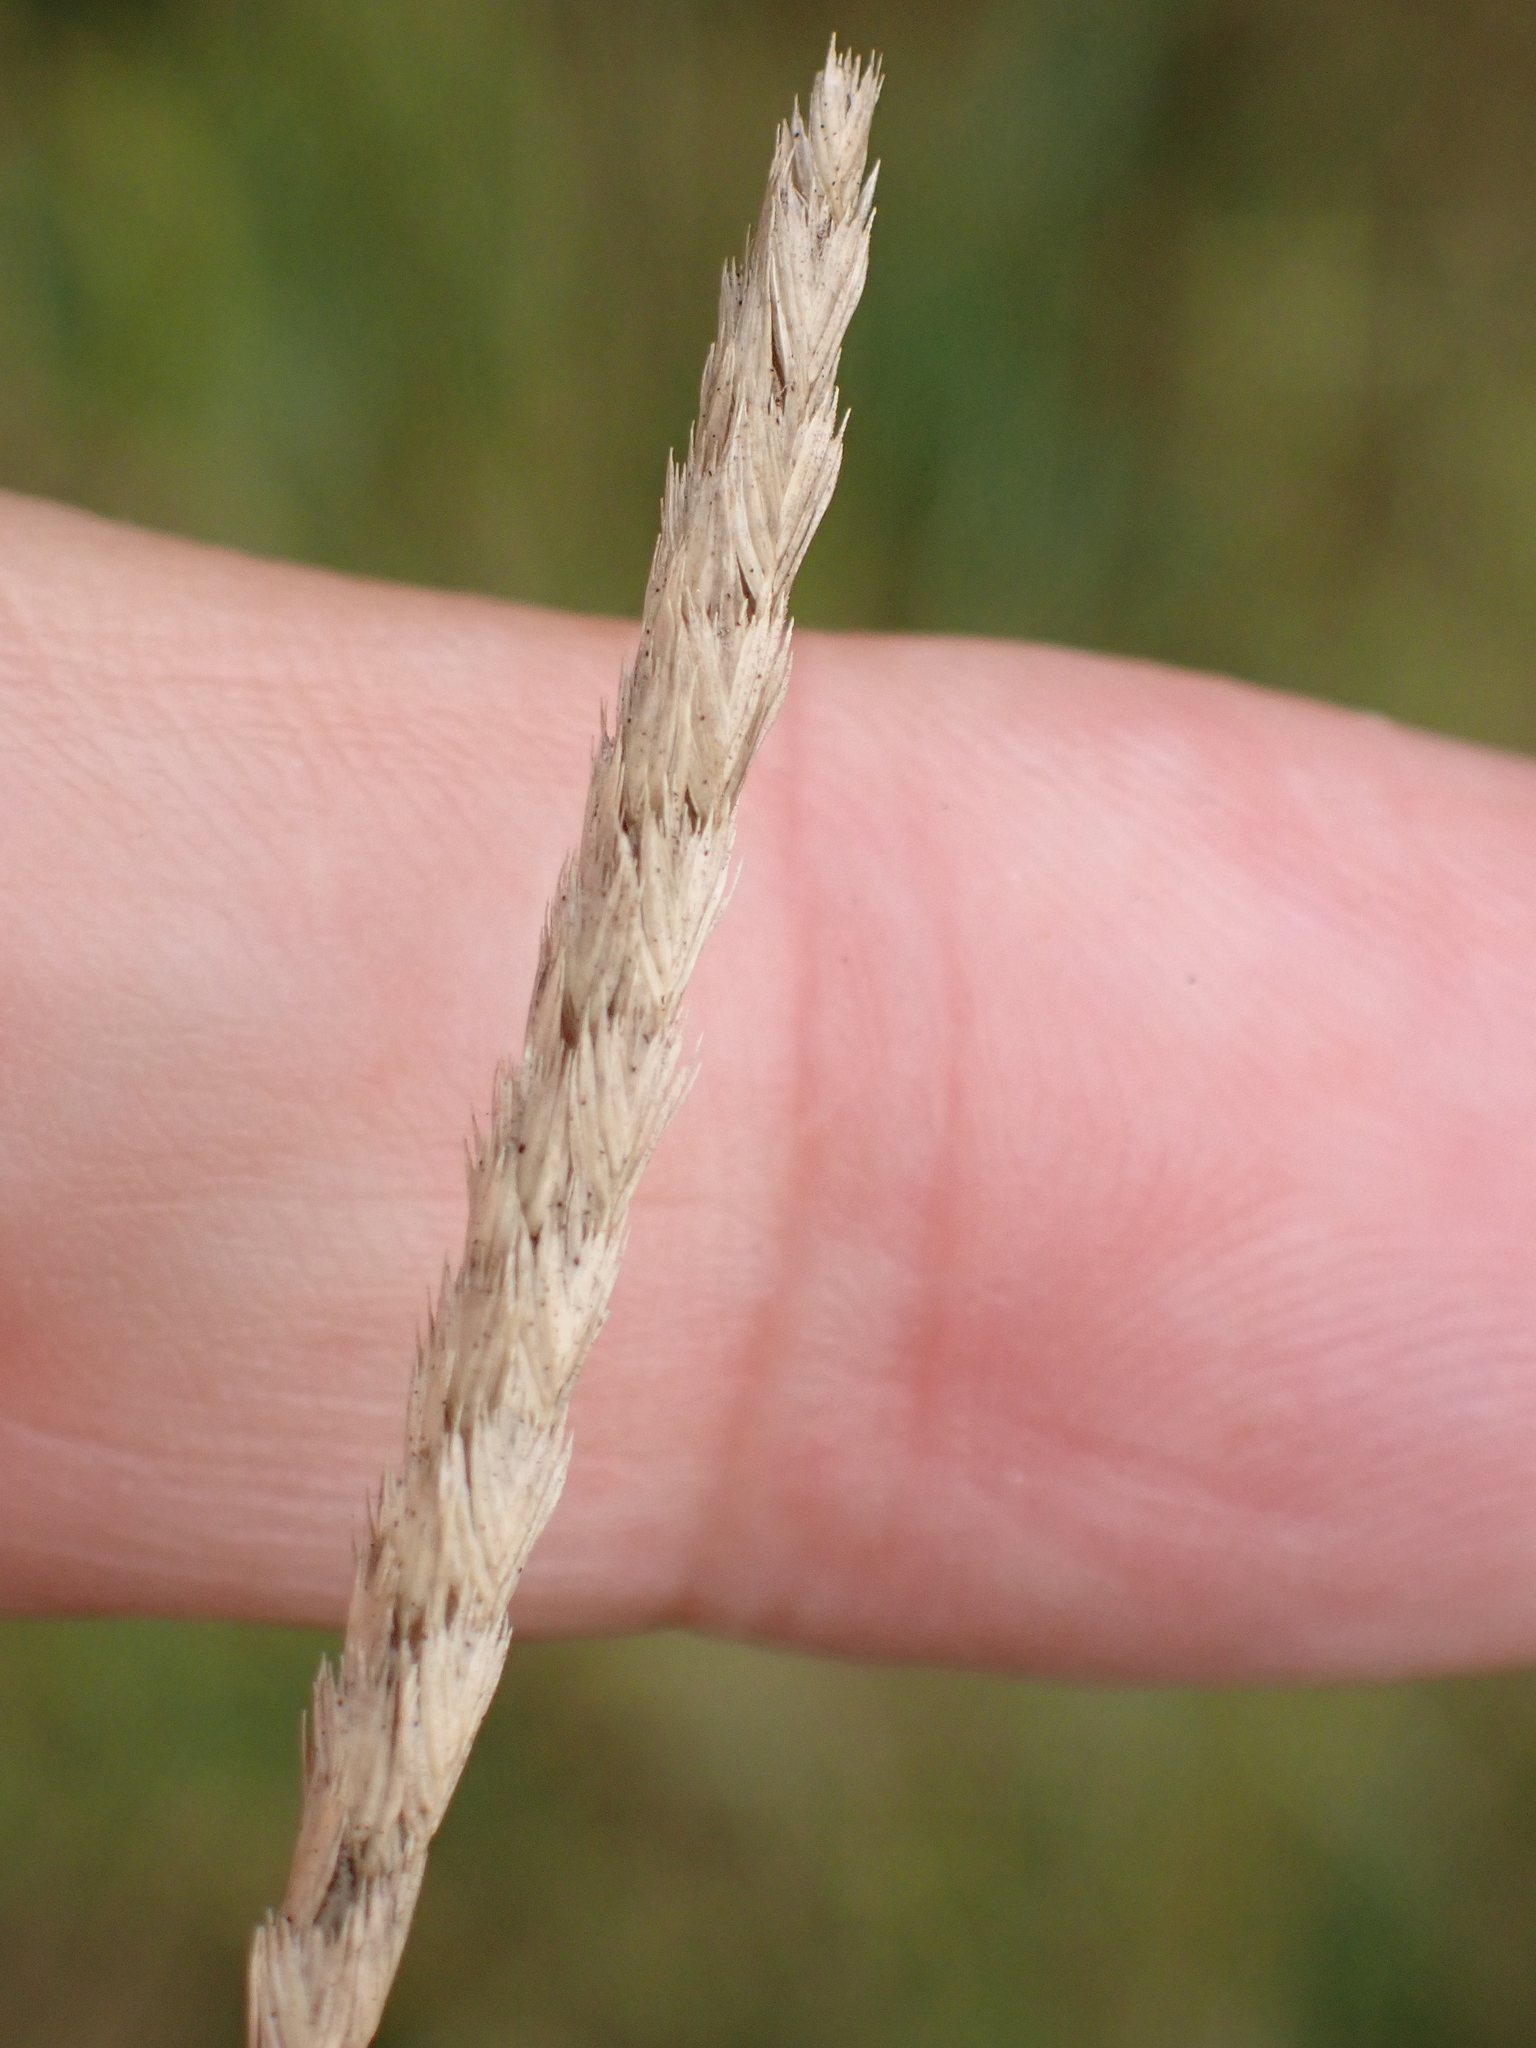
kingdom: Plantae
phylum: Tracheophyta
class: Liliopsida
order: Poales
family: Poaceae
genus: Cynosurus
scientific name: Cynosurus cristatus
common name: Crested dog's-tail
